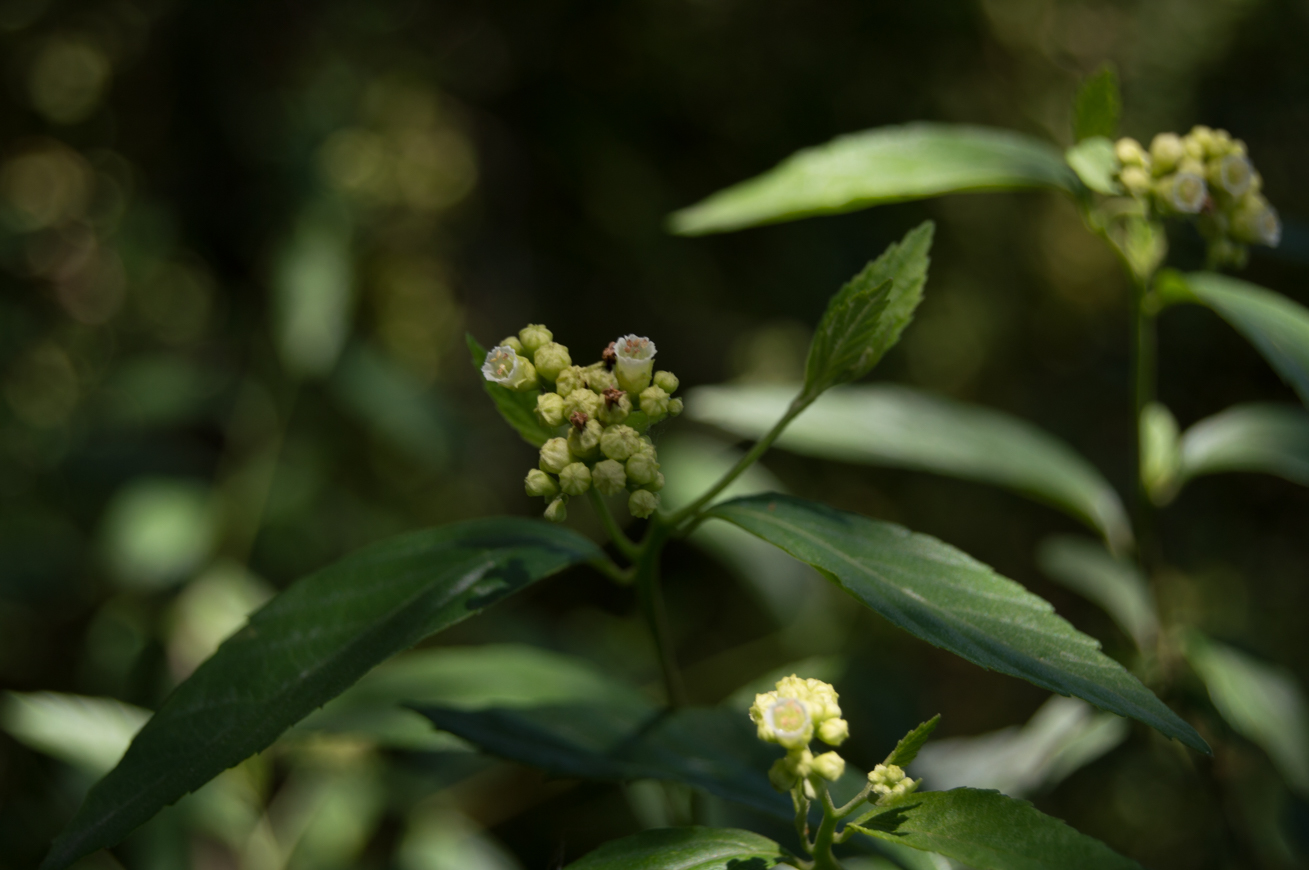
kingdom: Plantae
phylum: Tracheophyta
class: Magnoliopsida
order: Boraginales
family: Cordiaceae
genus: Varronia
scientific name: Varronia dichotoma
